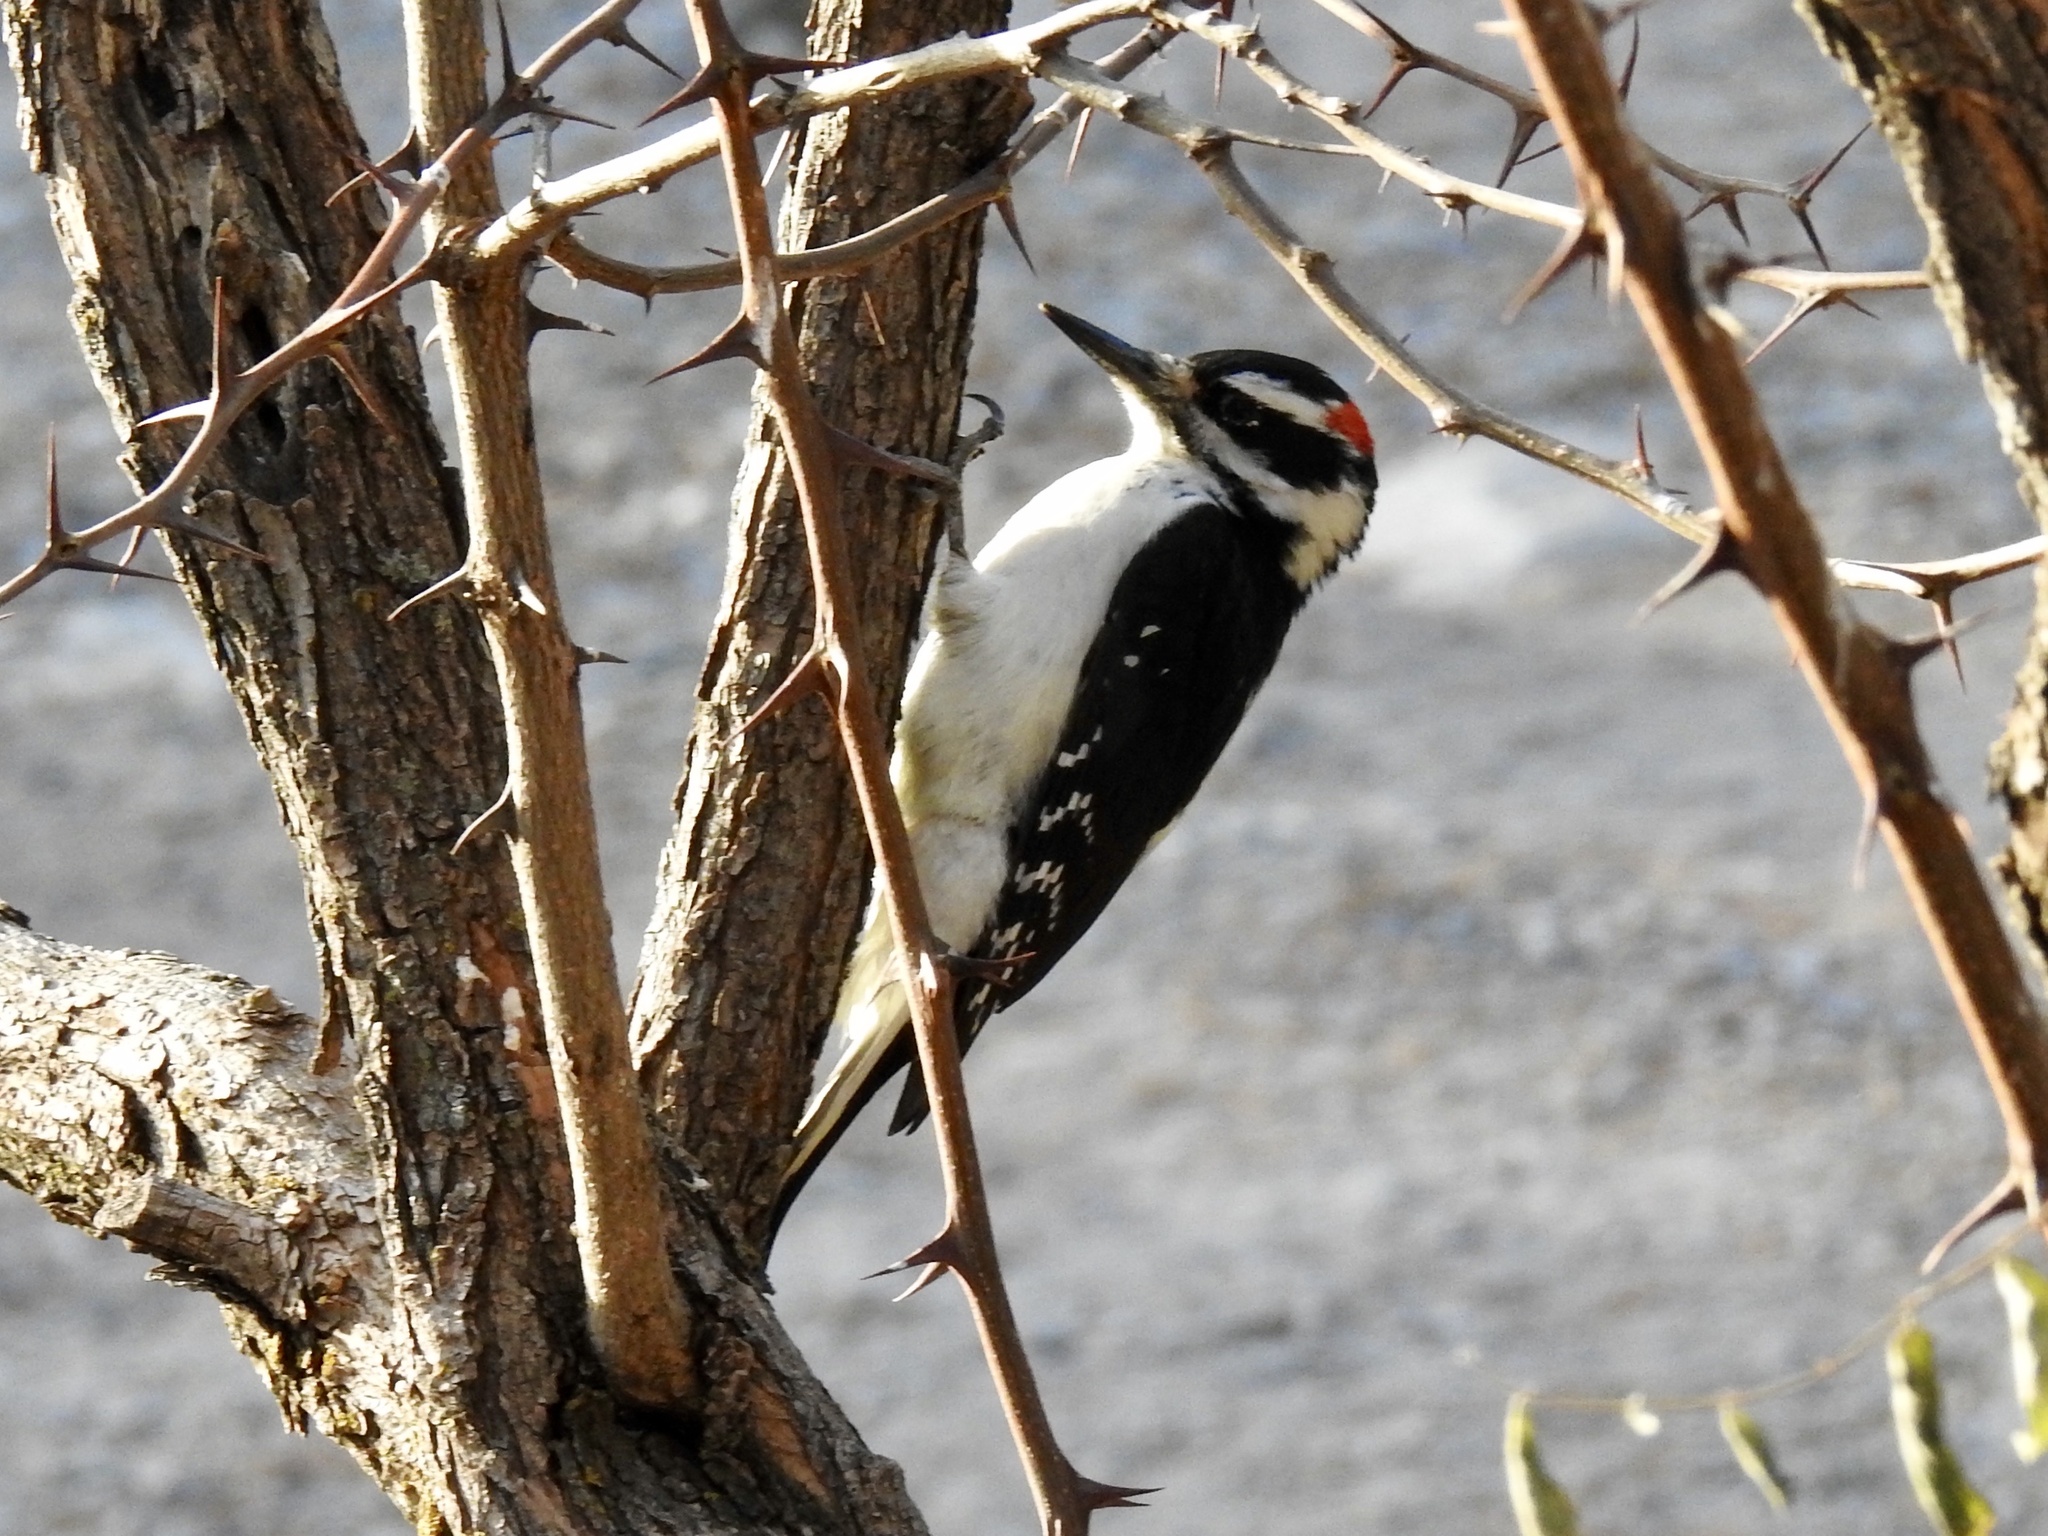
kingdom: Animalia
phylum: Chordata
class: Aves
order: Piciformes
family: Picidae
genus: Leuconotopicus
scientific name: Leuconotopicus villosus
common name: Hairy woodpecker
